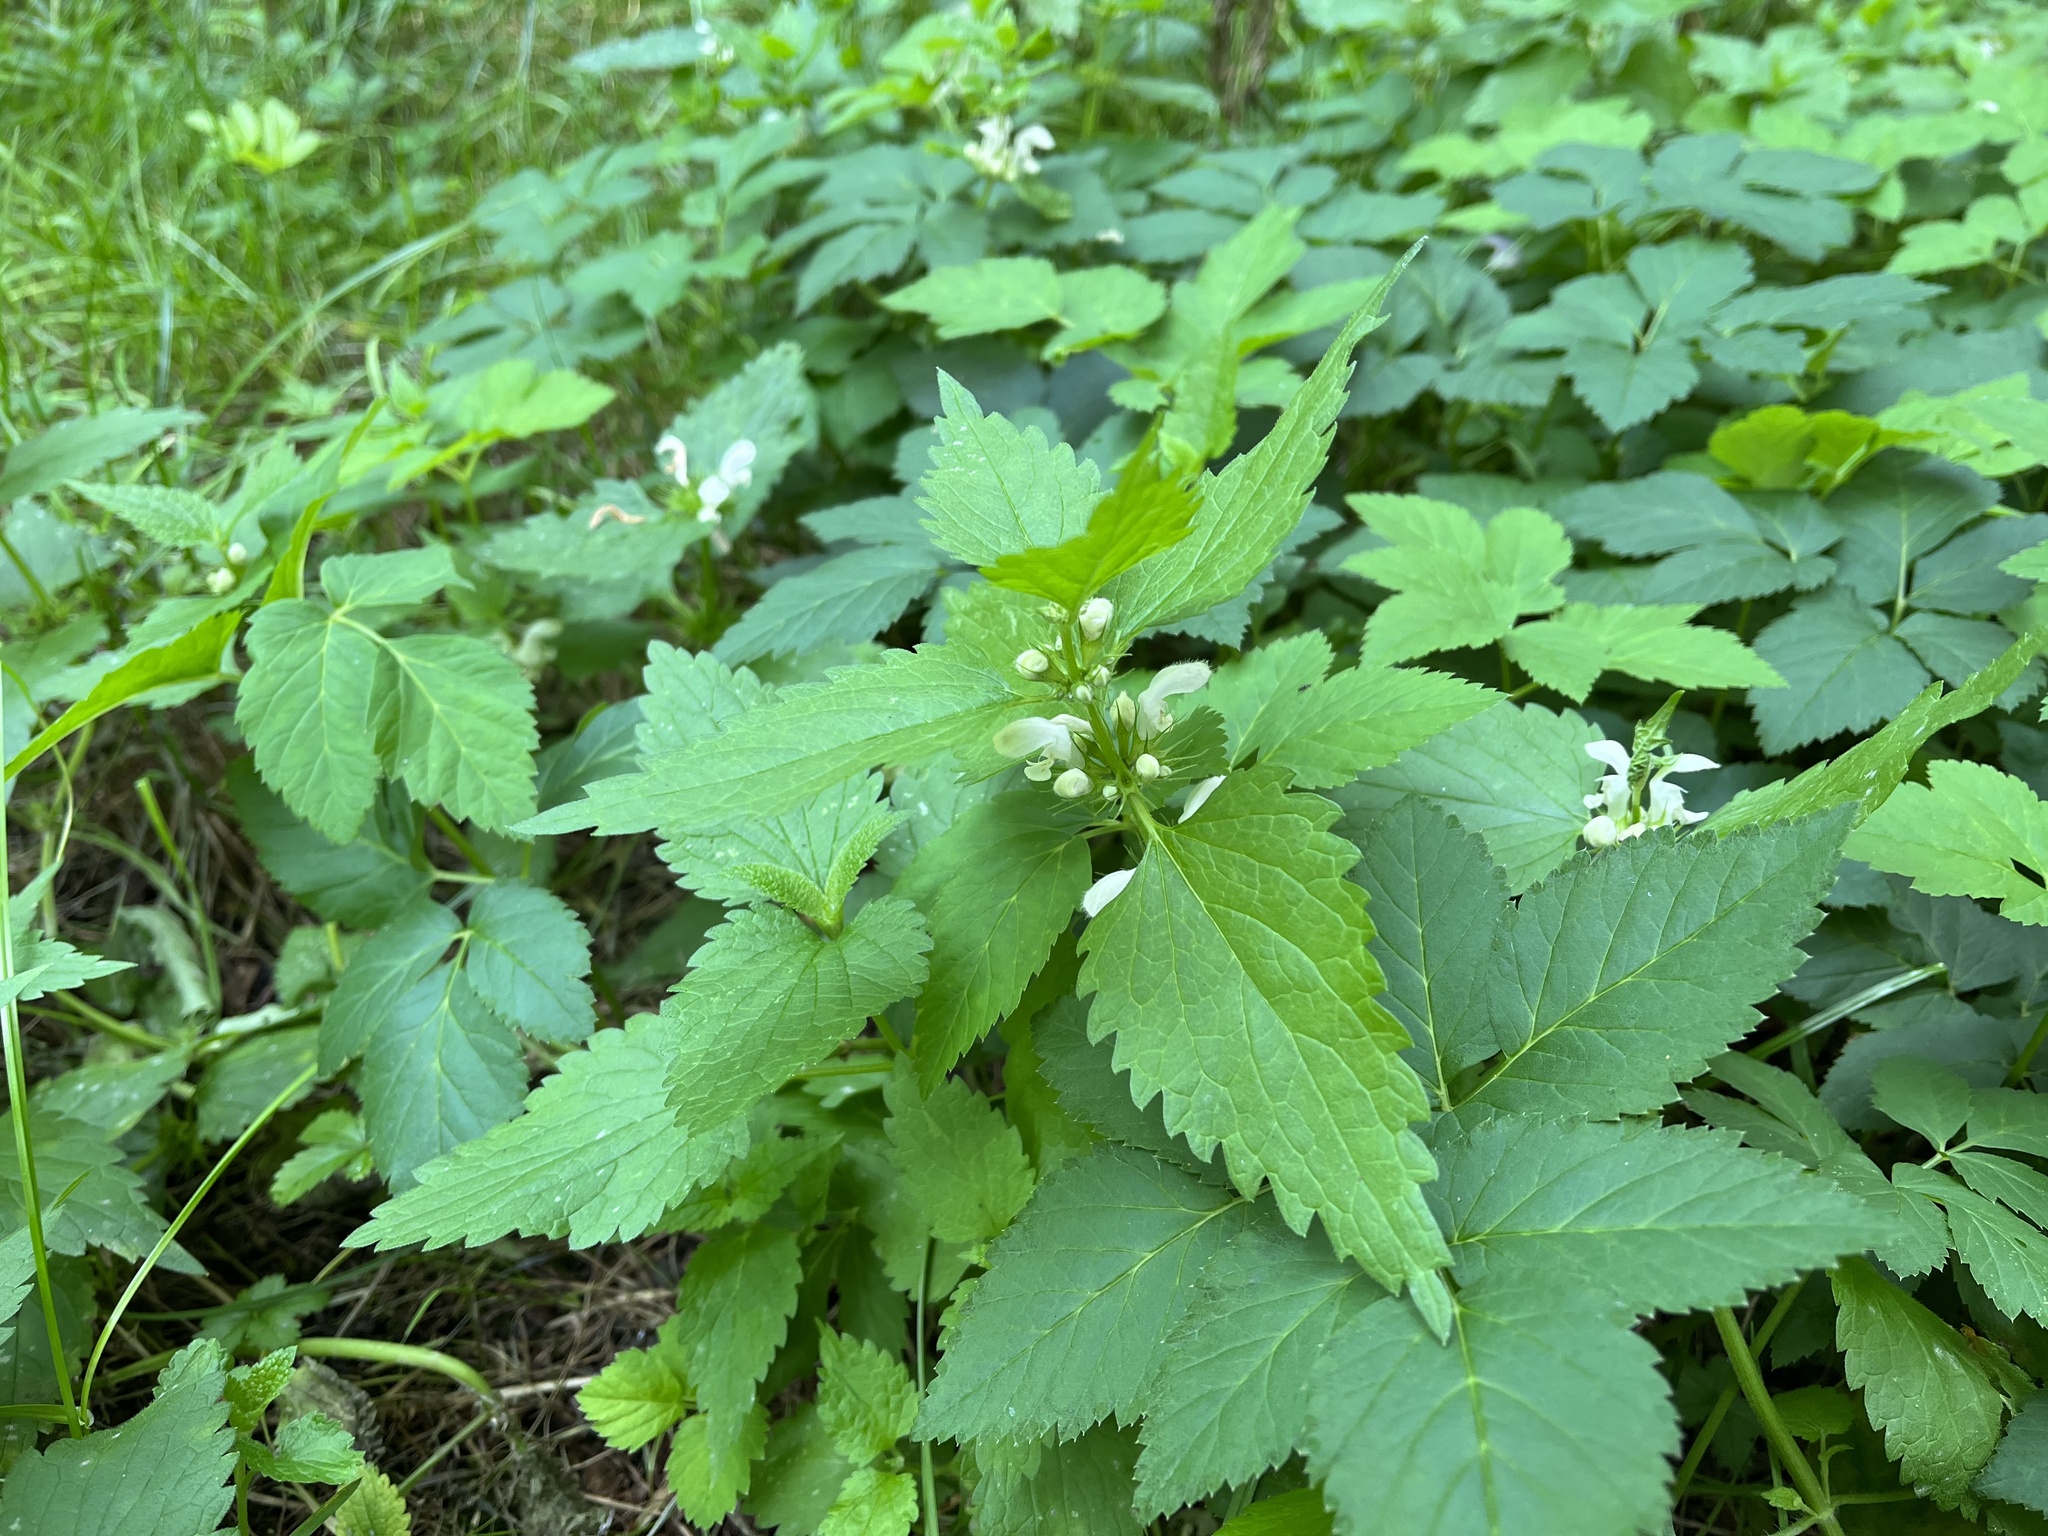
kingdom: Plantae
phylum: Tracheophyta
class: Magnoliopsida
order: Lamiales
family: Lamiaceae
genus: Lamium
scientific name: Lamium album
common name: White dead-nettle
